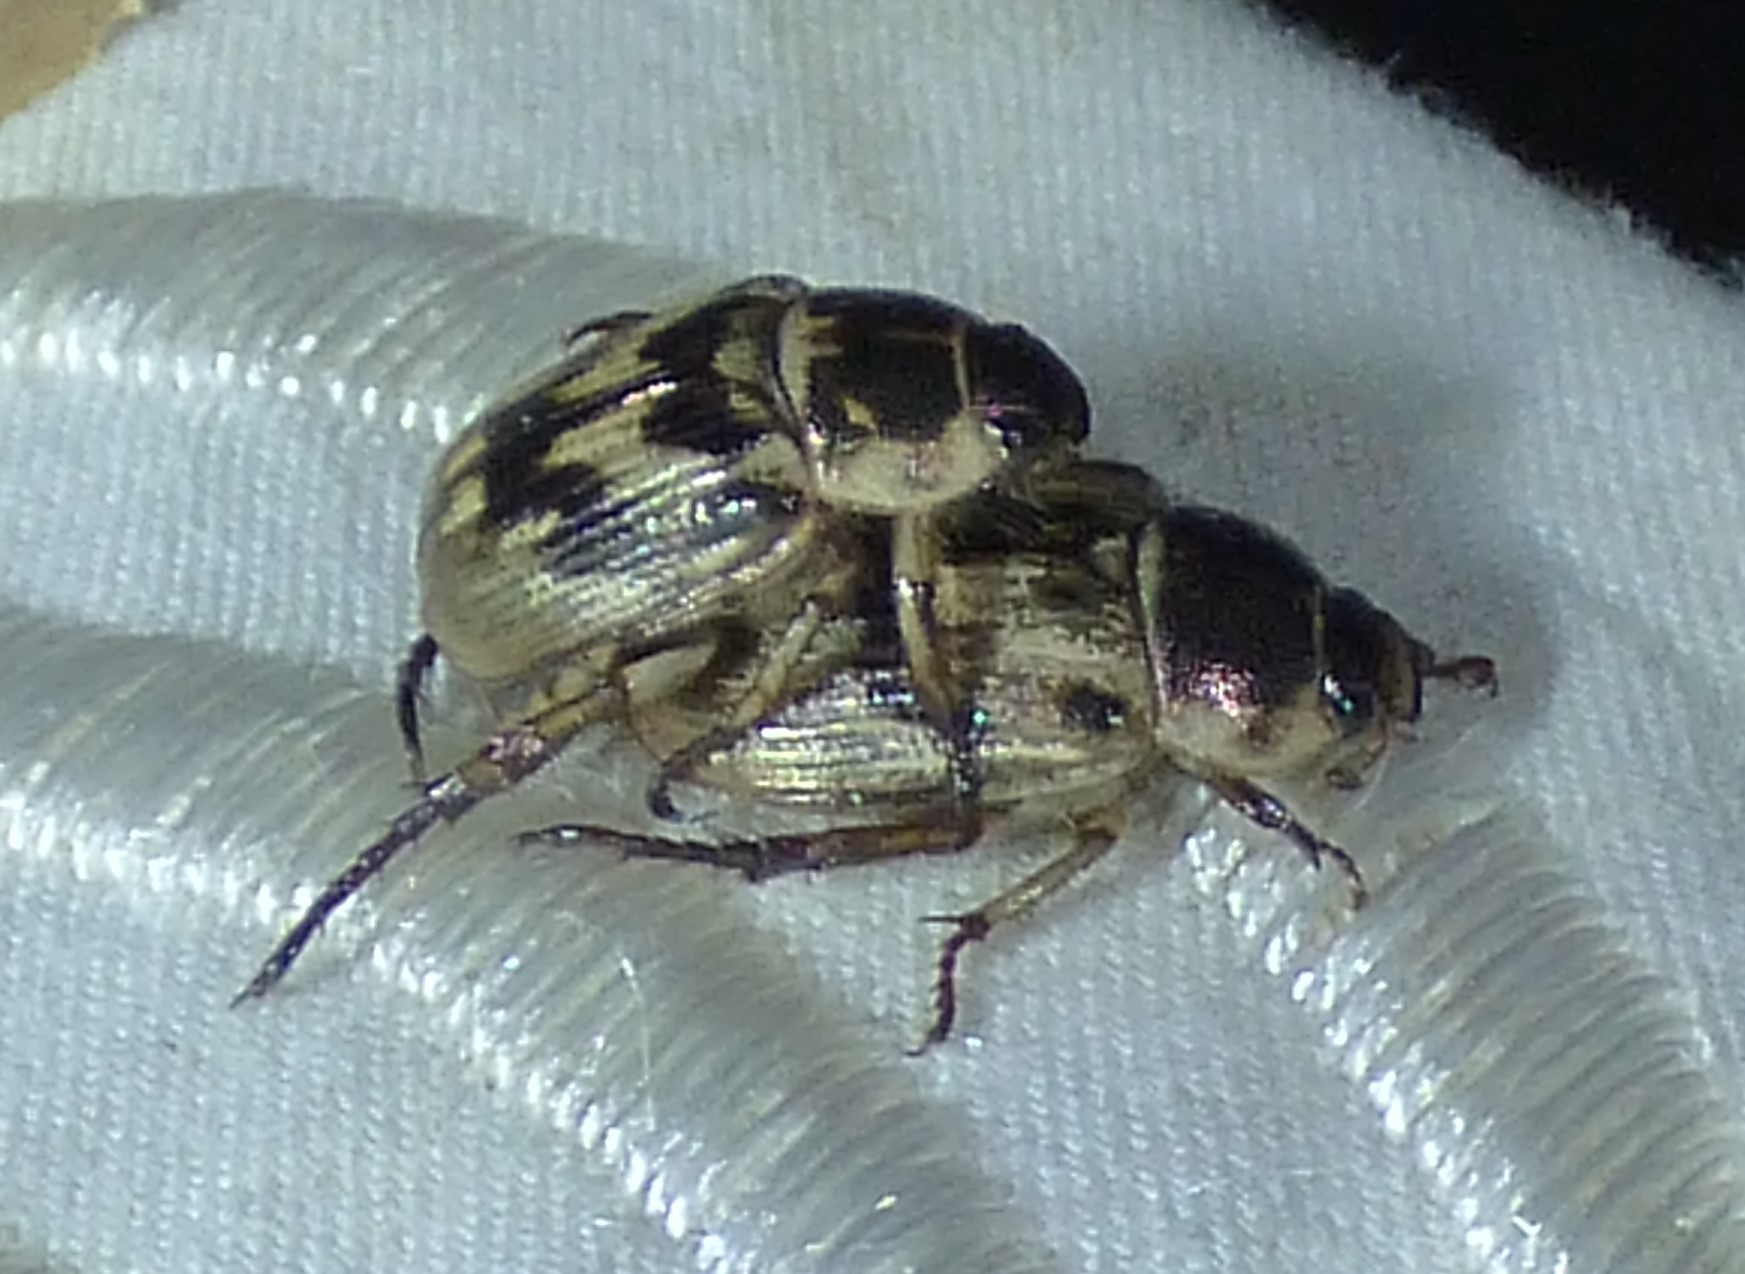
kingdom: Animalia
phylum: Arthropoda
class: Insecta
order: Coleoptera
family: Scarabaeidae
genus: Exomala
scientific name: Exomala orientalis
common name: Oriental beetle
